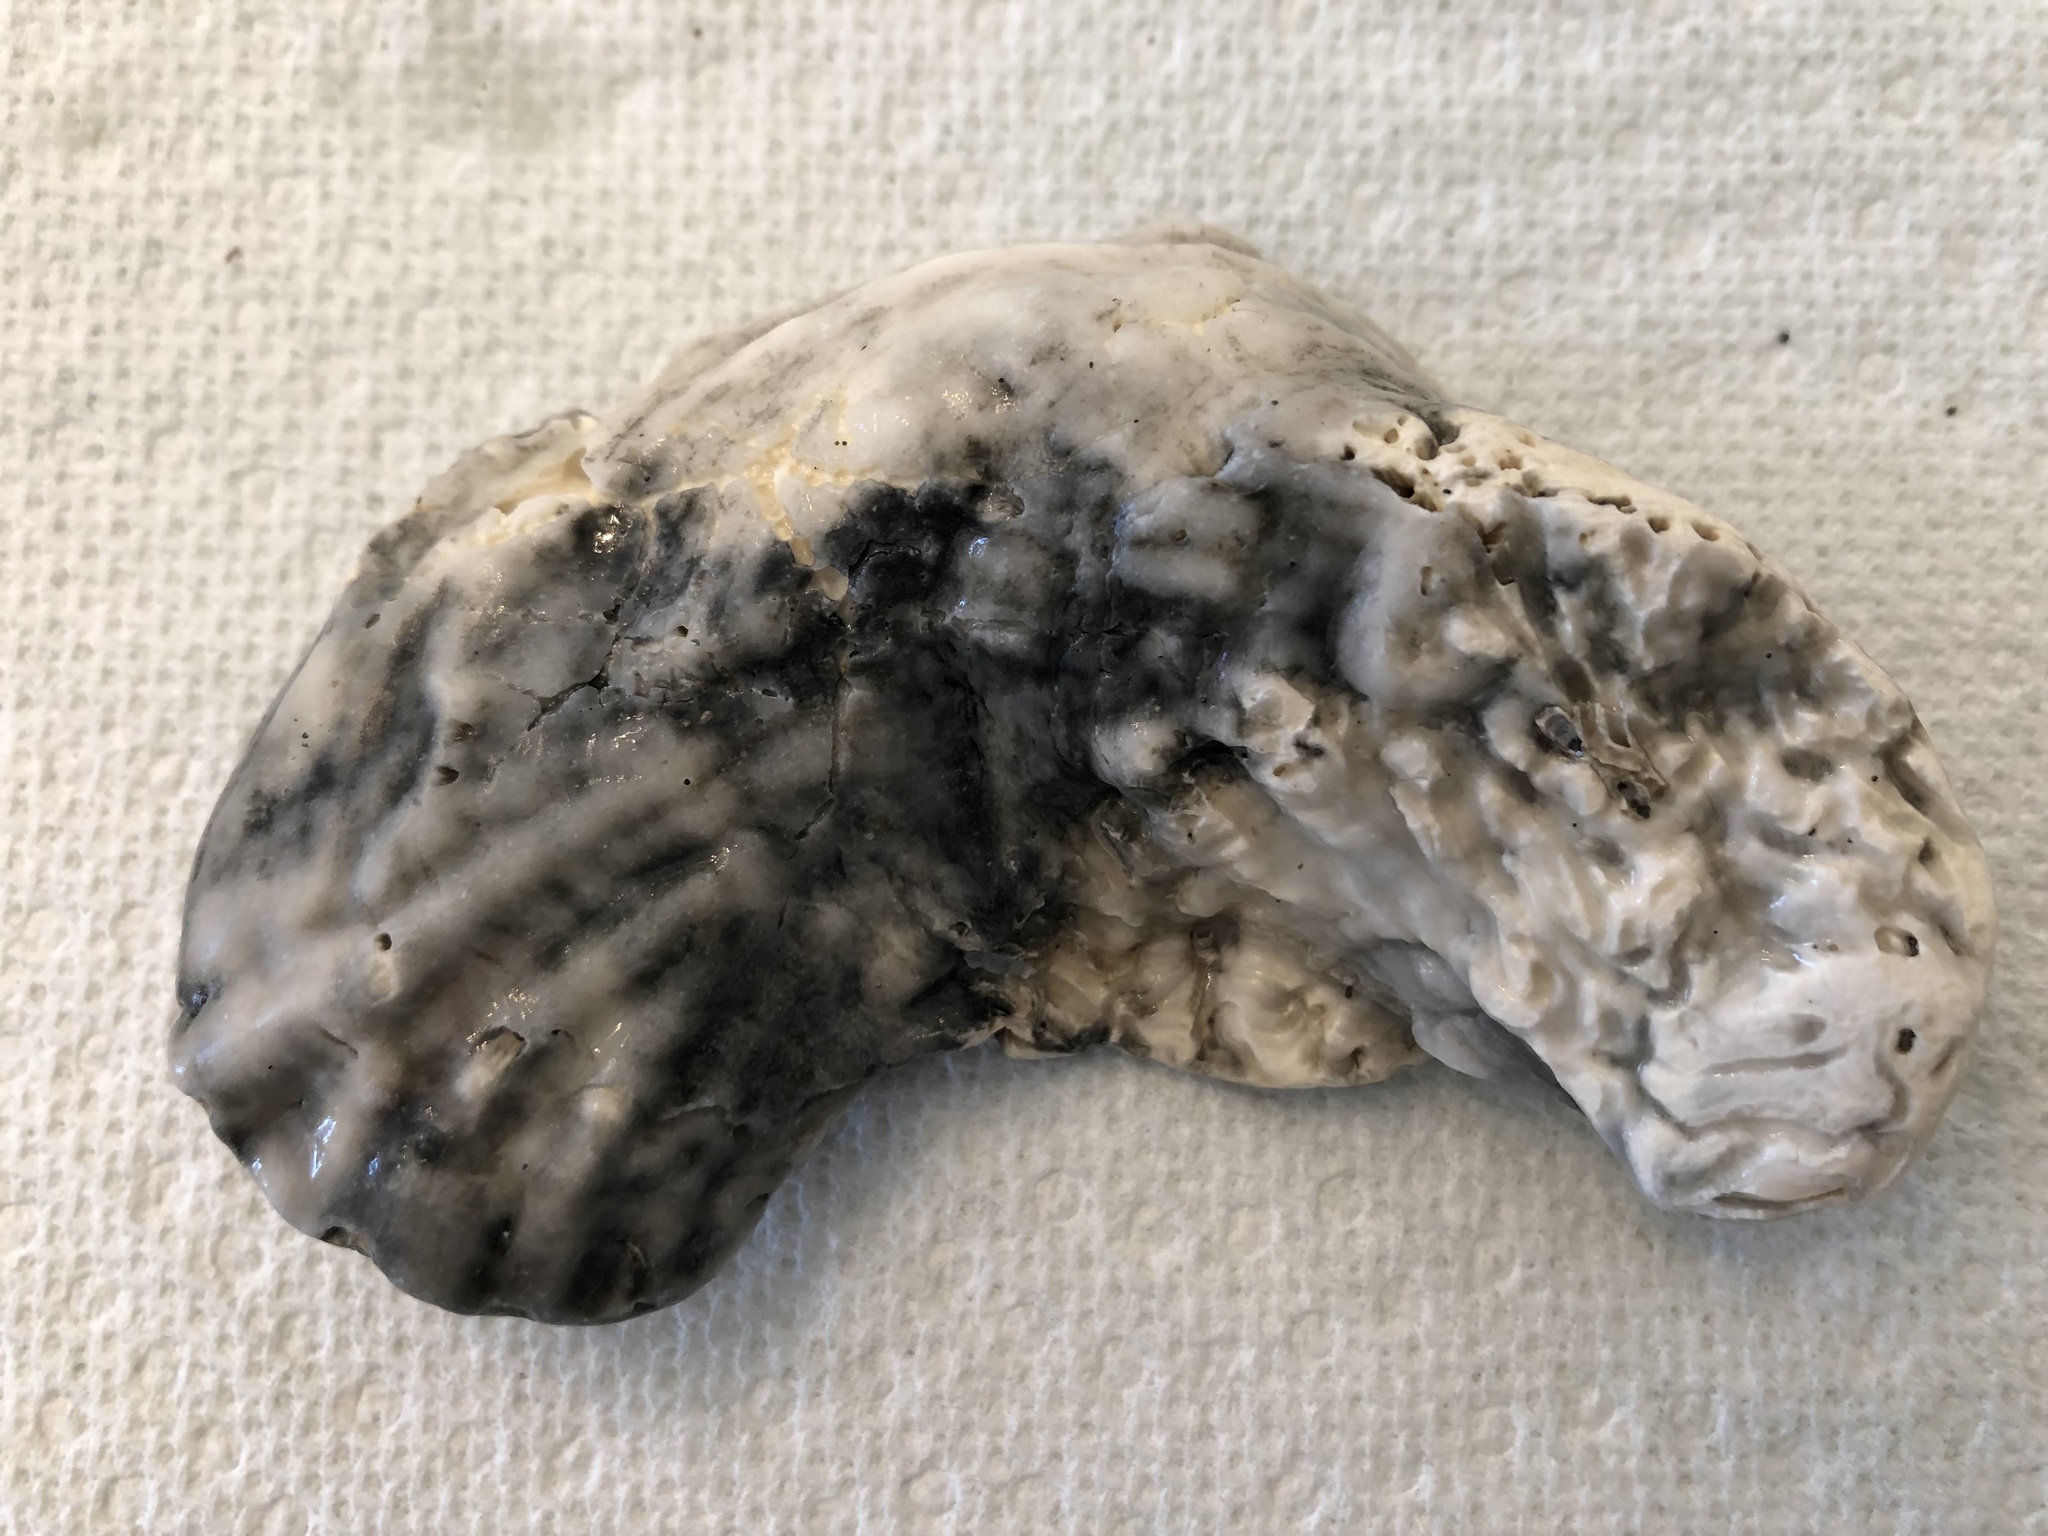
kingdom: Animalia
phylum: Mollusca
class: Bivalvia
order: Ostreida
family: Ostreidae
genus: Crassostrea
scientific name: Crassostrea virginica
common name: American oyster
